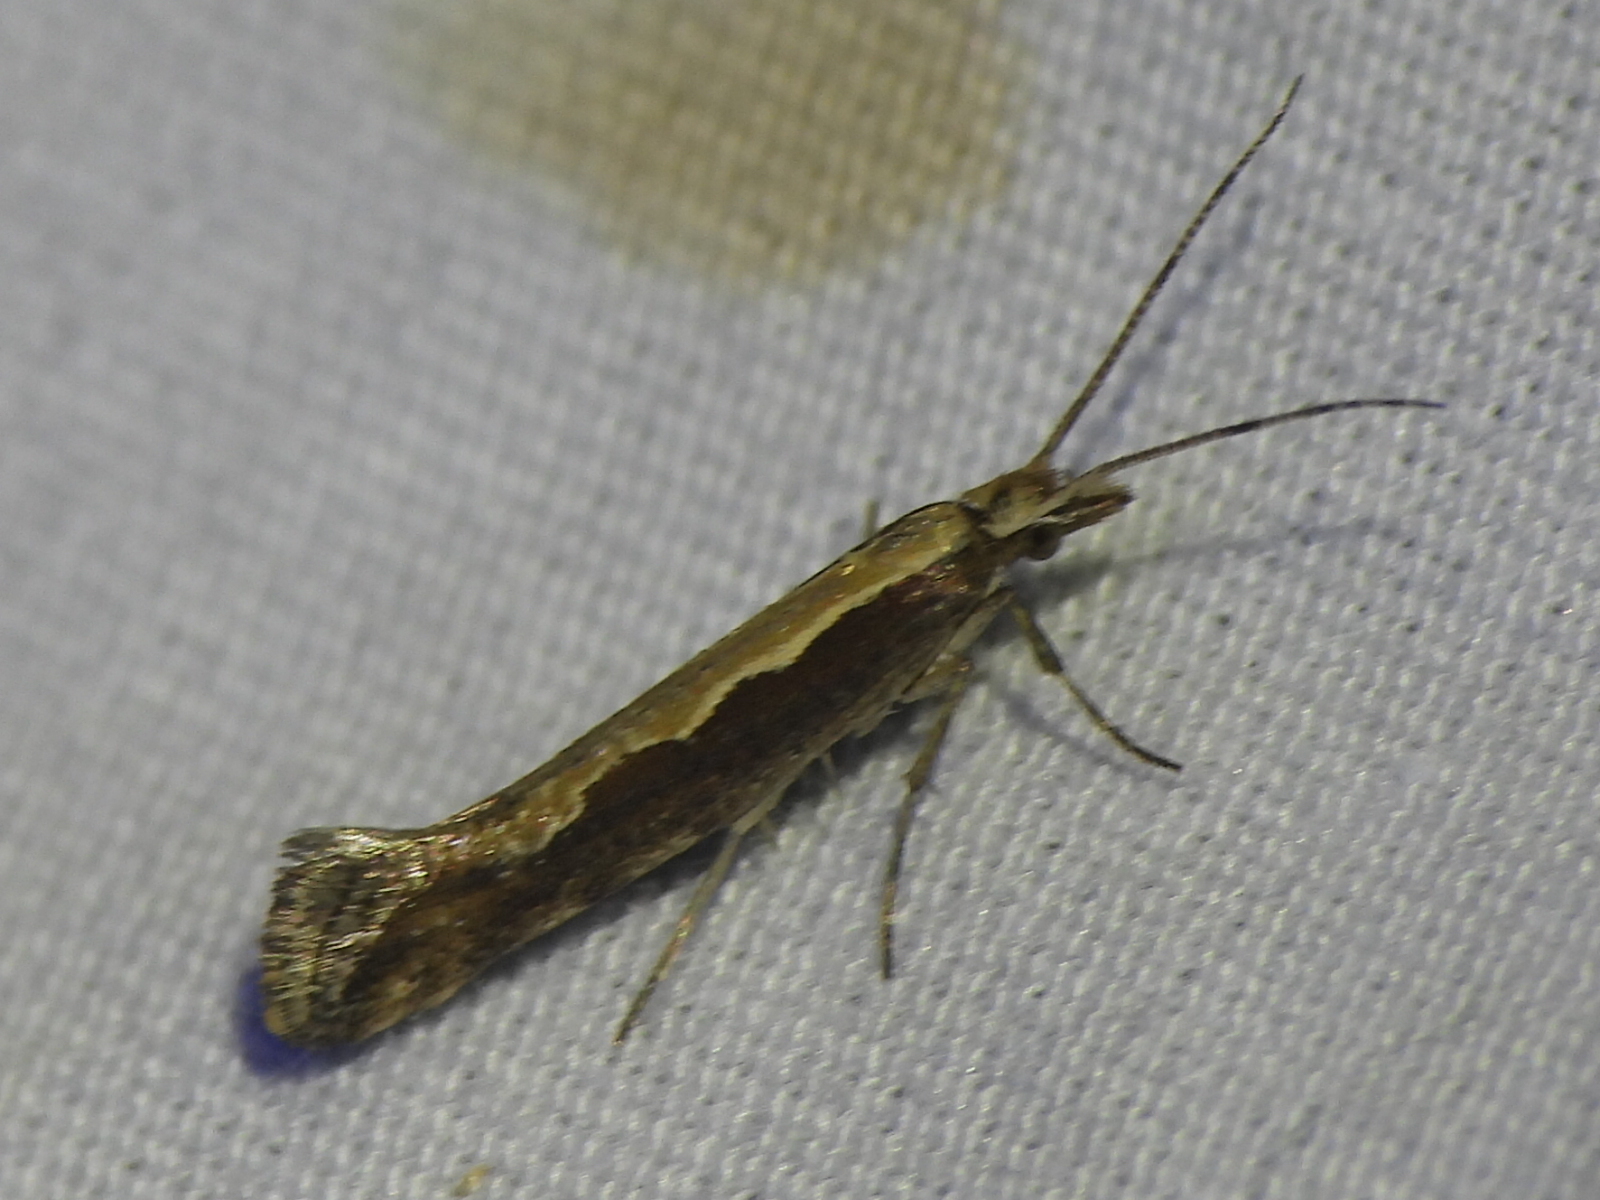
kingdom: Animalia
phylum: Arthropoda
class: Insecta
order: Lepidoptera
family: Plutellidae
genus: Plutella
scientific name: Plutella xylostella
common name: Diamond-back moth
